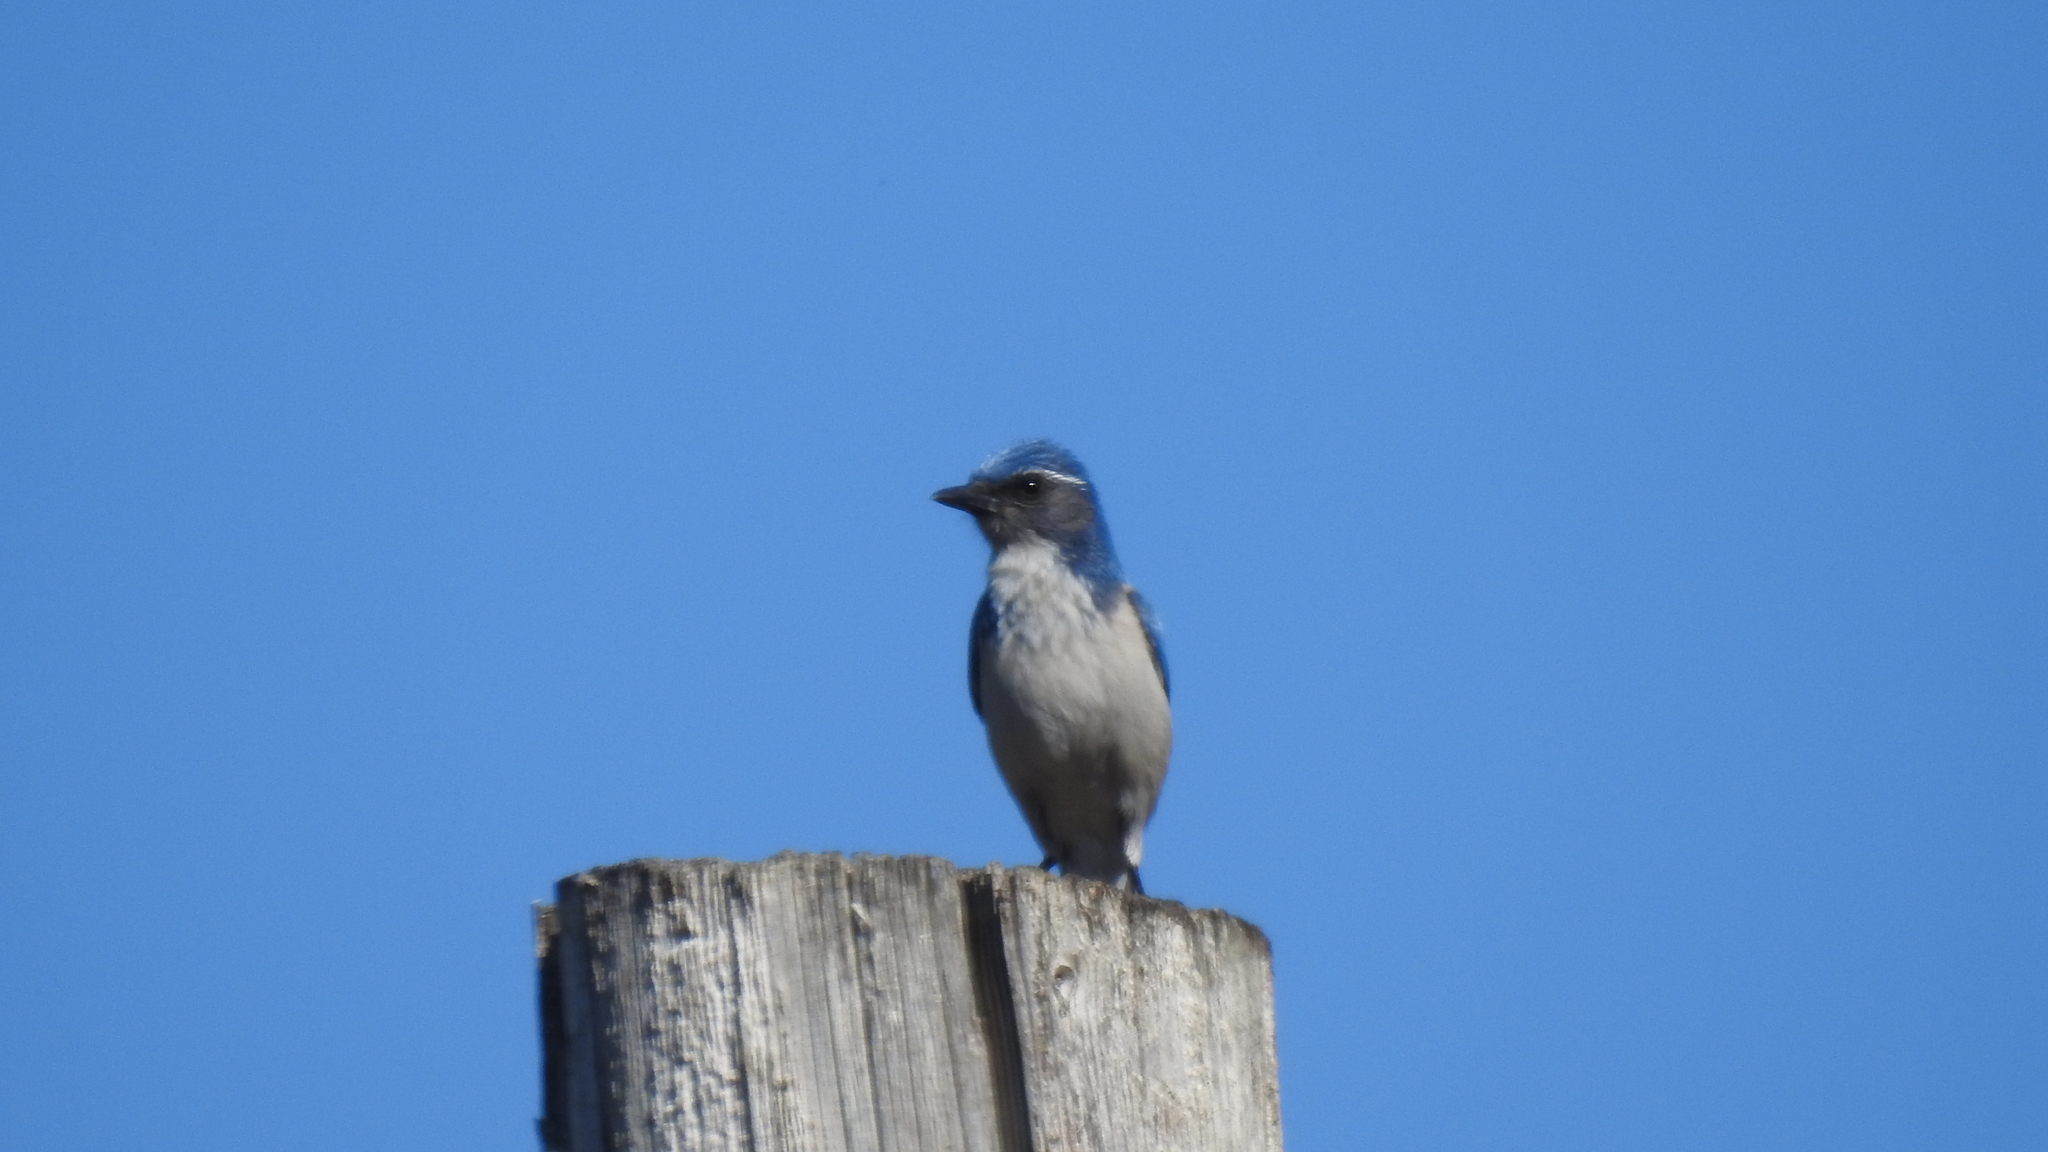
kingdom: Animalia
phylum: Chordata
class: Aves
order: Passeriformes
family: Corvidae
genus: Aphelocoma
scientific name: Aphelocoma californica
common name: California scrub-jay
